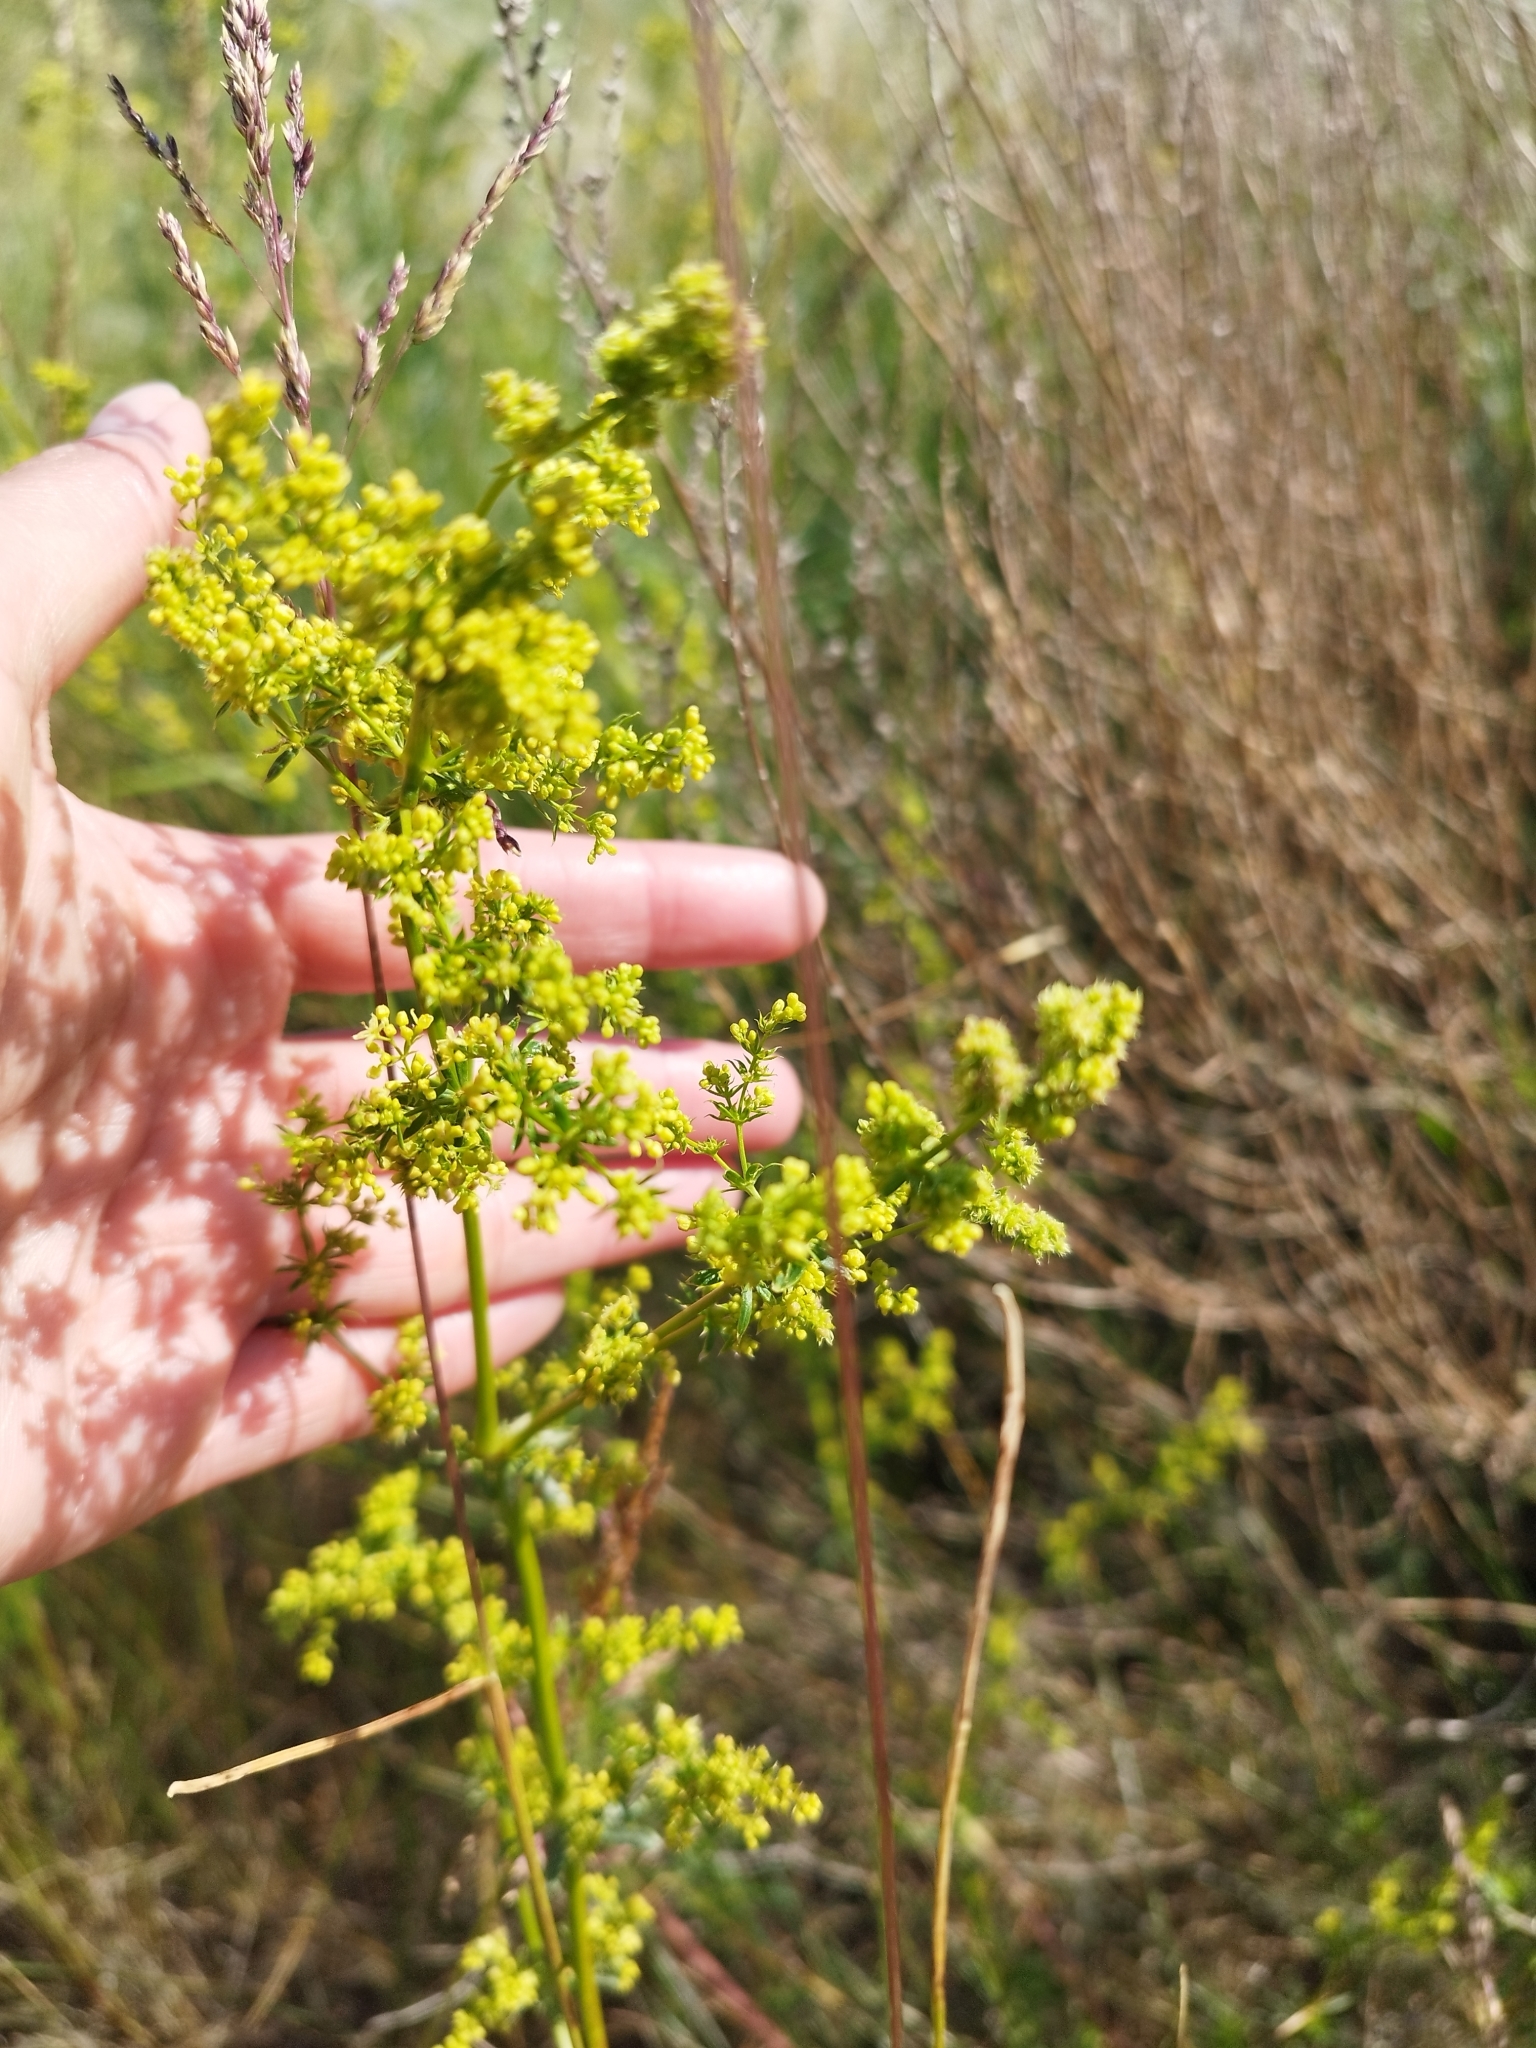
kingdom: Plantae
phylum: Tracheophyta
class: Magnoliopsida
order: Gentianales
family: Rubiaceae
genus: Galium
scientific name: Galium verum
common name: Lady's bedstraw
